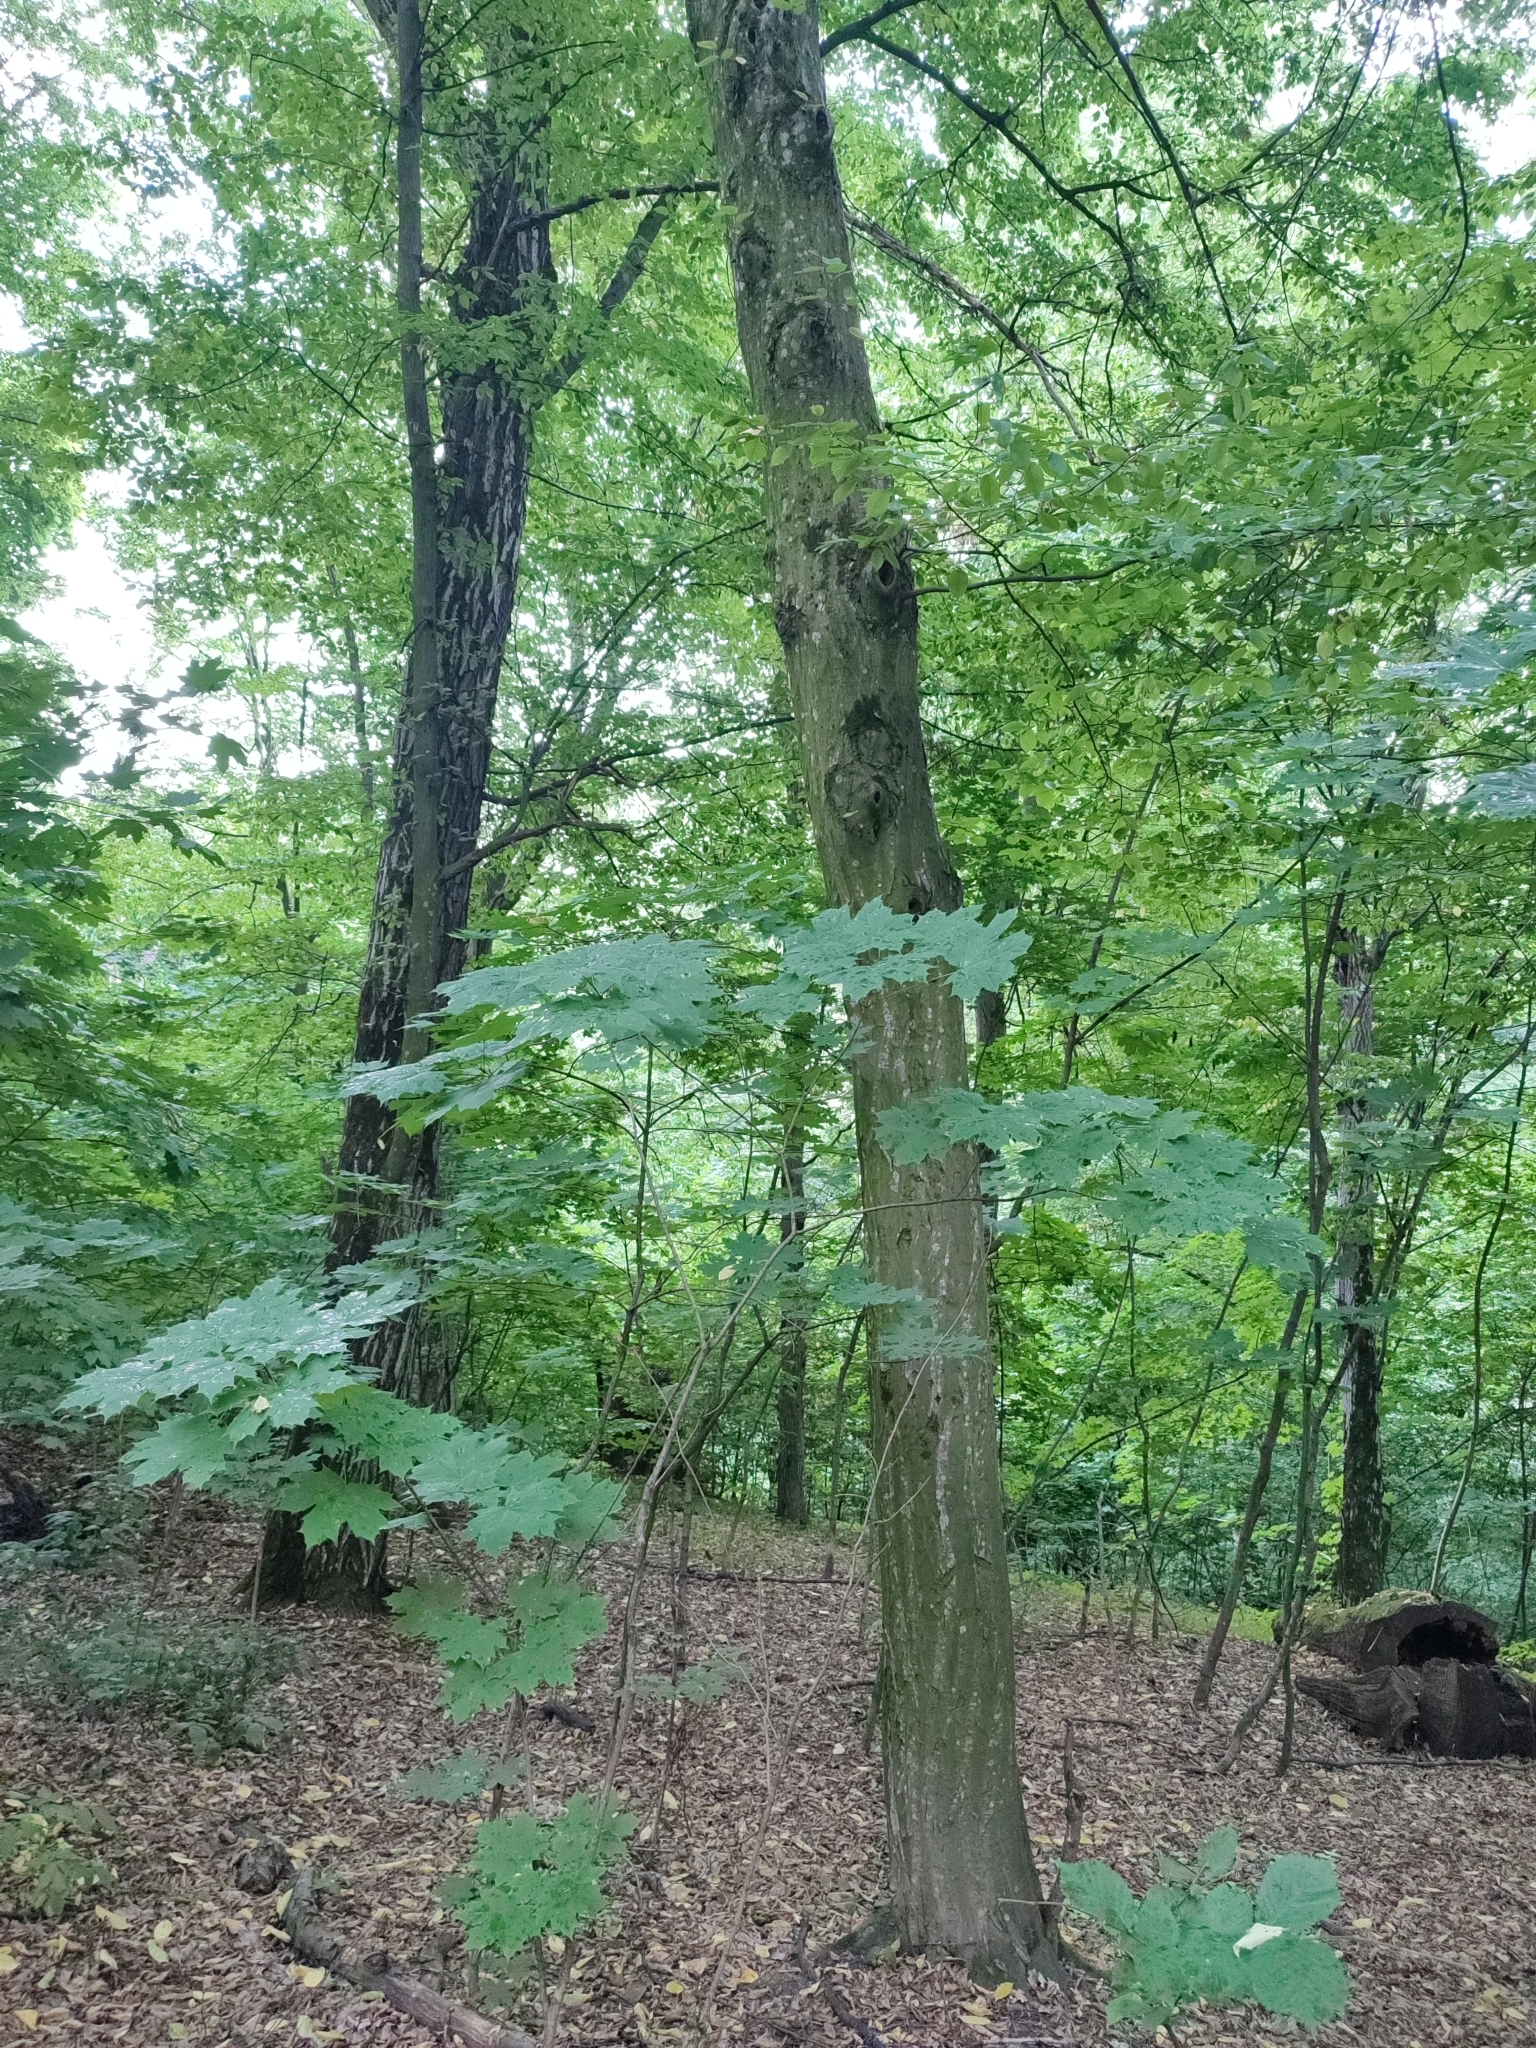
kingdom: Plantae
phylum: Tracheophyta
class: Magnoliopsida
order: Fagales
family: Betulaceae
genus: Carpinus
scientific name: Carpinus betulus
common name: Hornbeam
